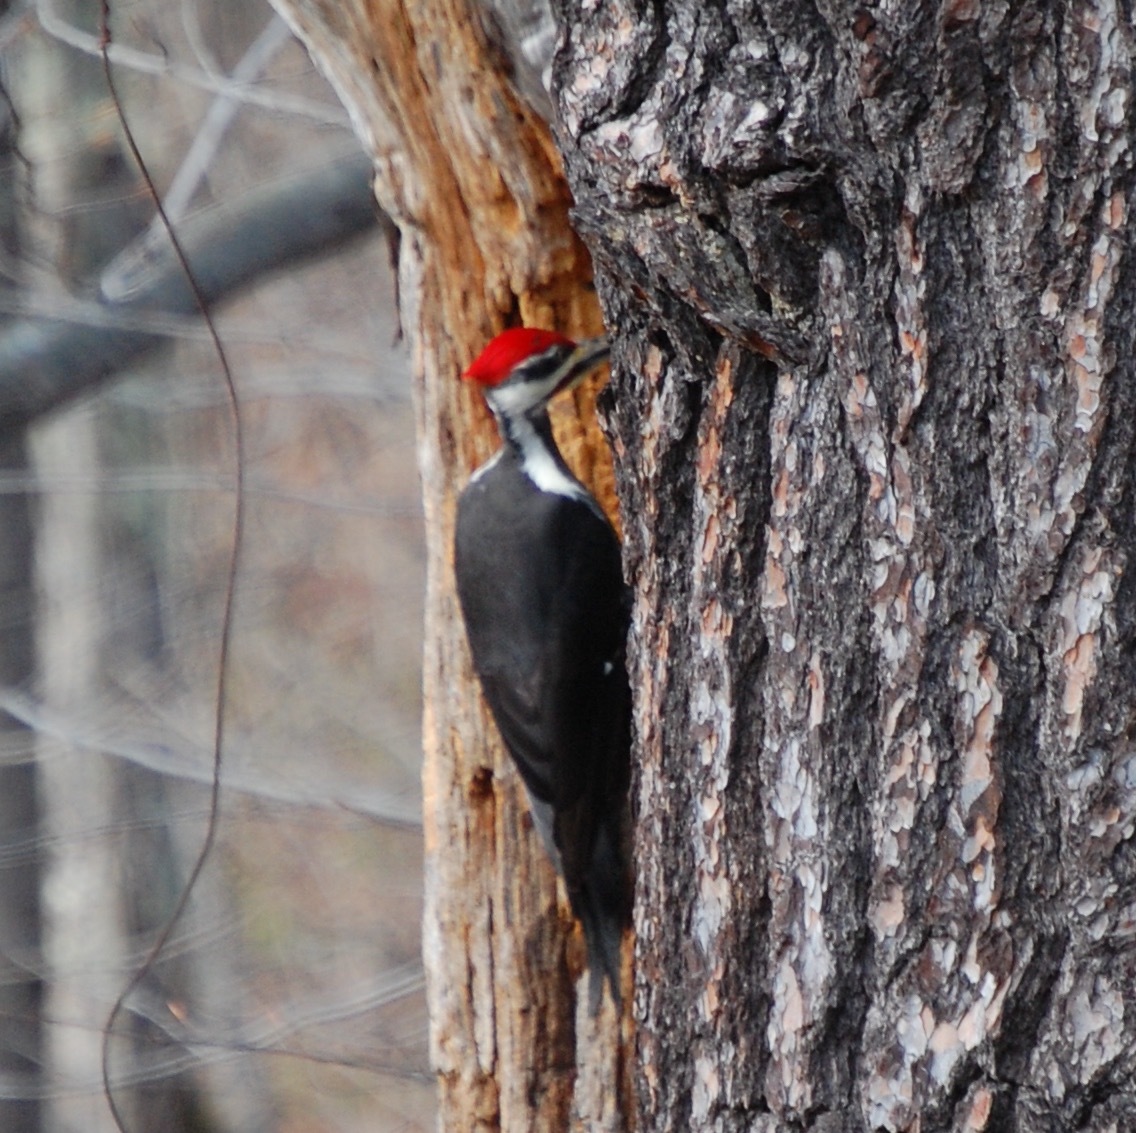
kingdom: Animalia
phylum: Chordata
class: Aves
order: Piciformes
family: Picidae
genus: Dryocopus
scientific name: Dryocopus pileatus
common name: Pileated woodpecker
